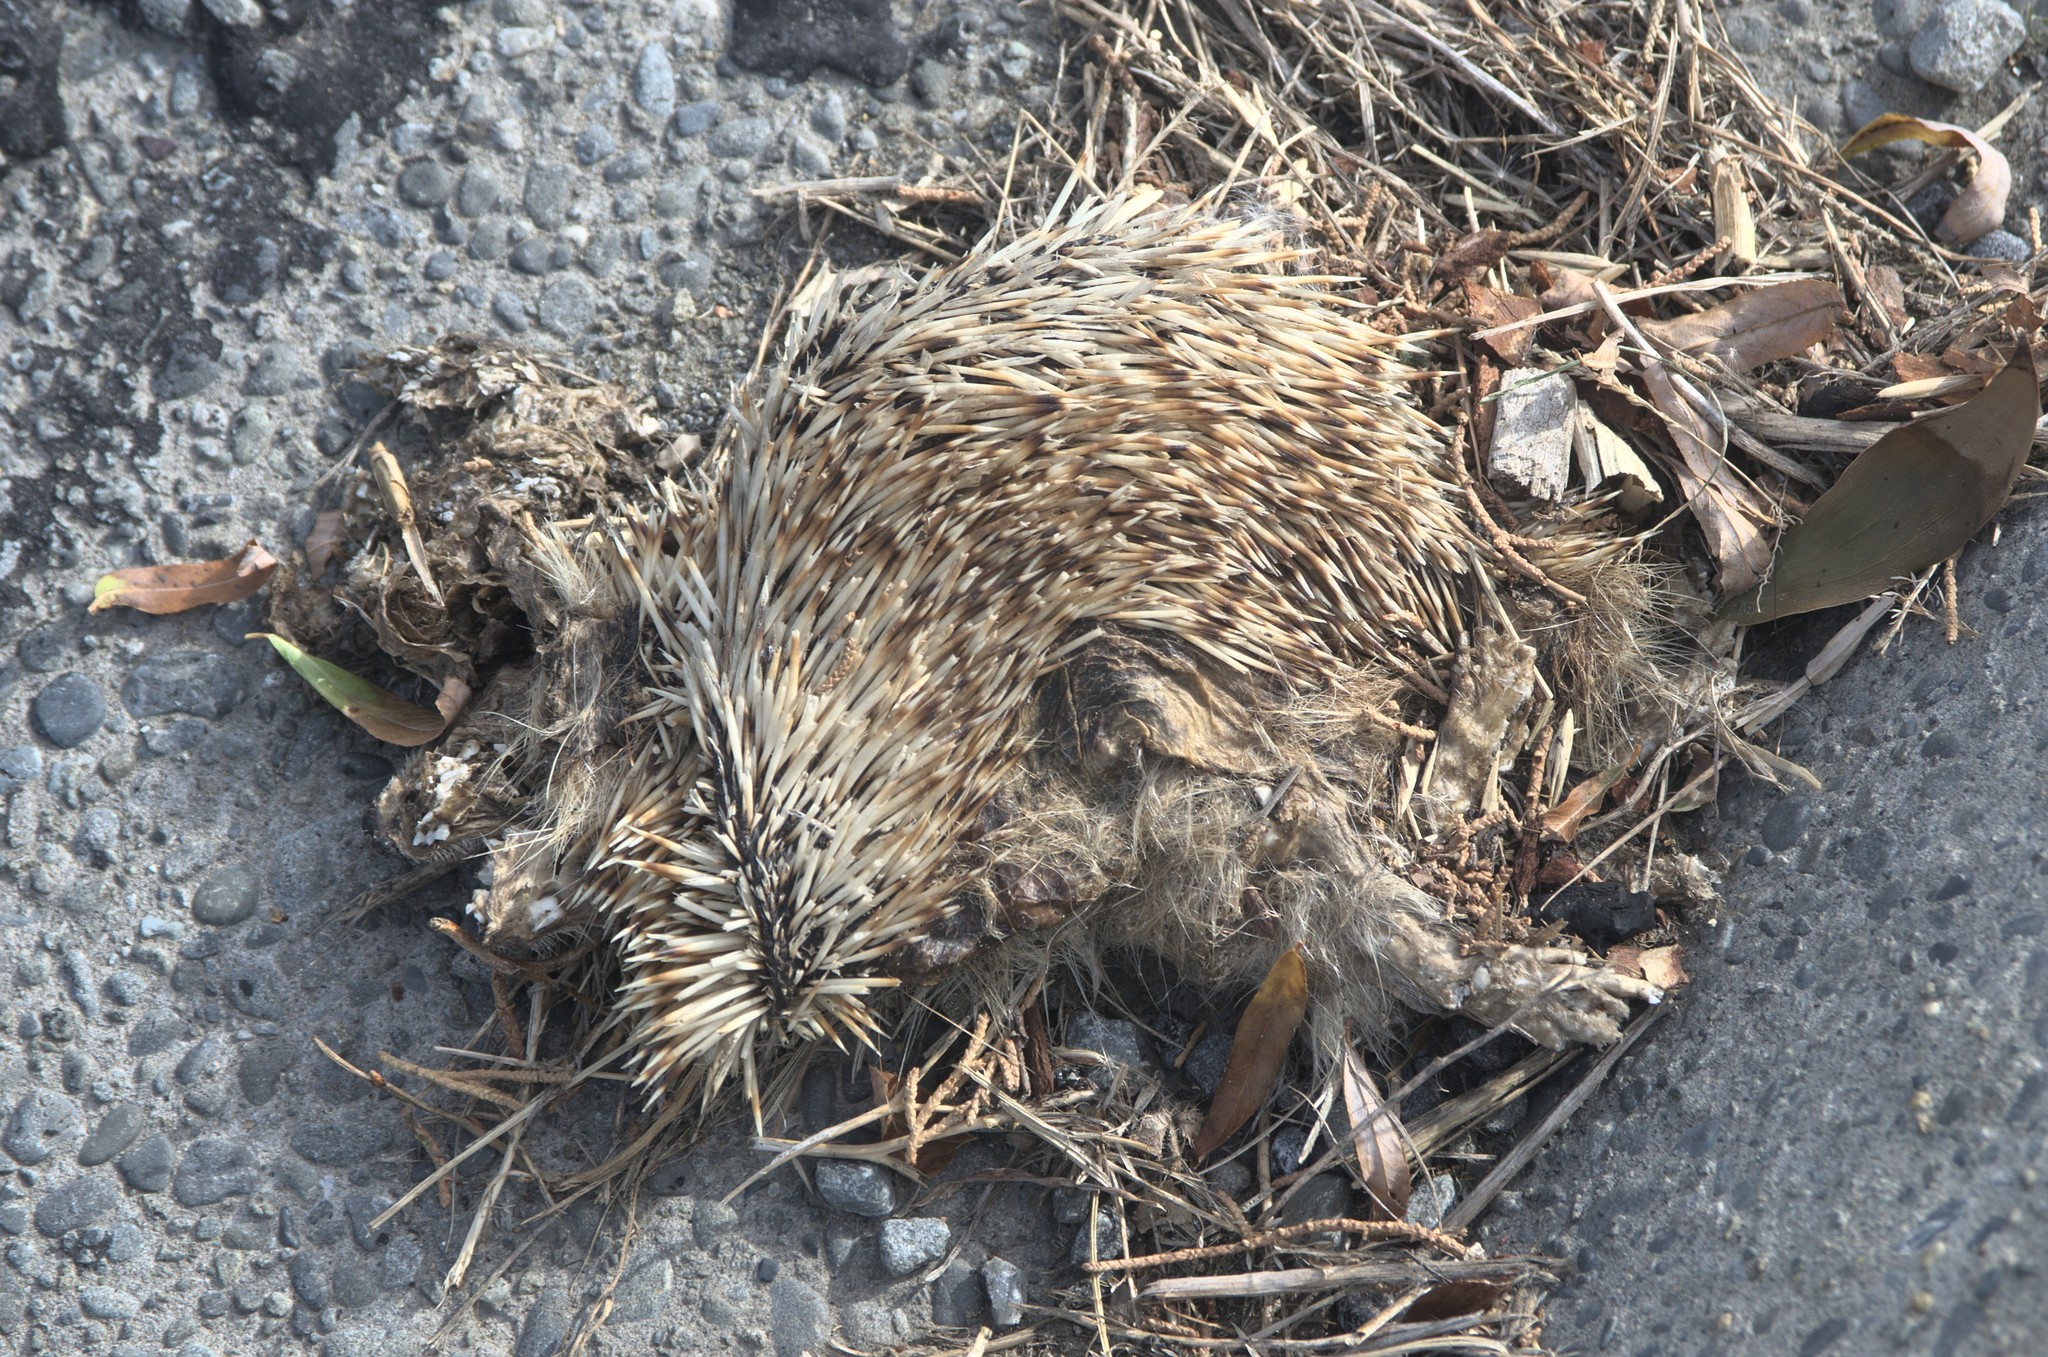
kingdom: Animalia
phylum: Chordata
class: Mammalia
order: Erinaceomorpha
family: Erinaceidae
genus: Erinaceus
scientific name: Erinaceus europaeus
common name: West european hedgehog
